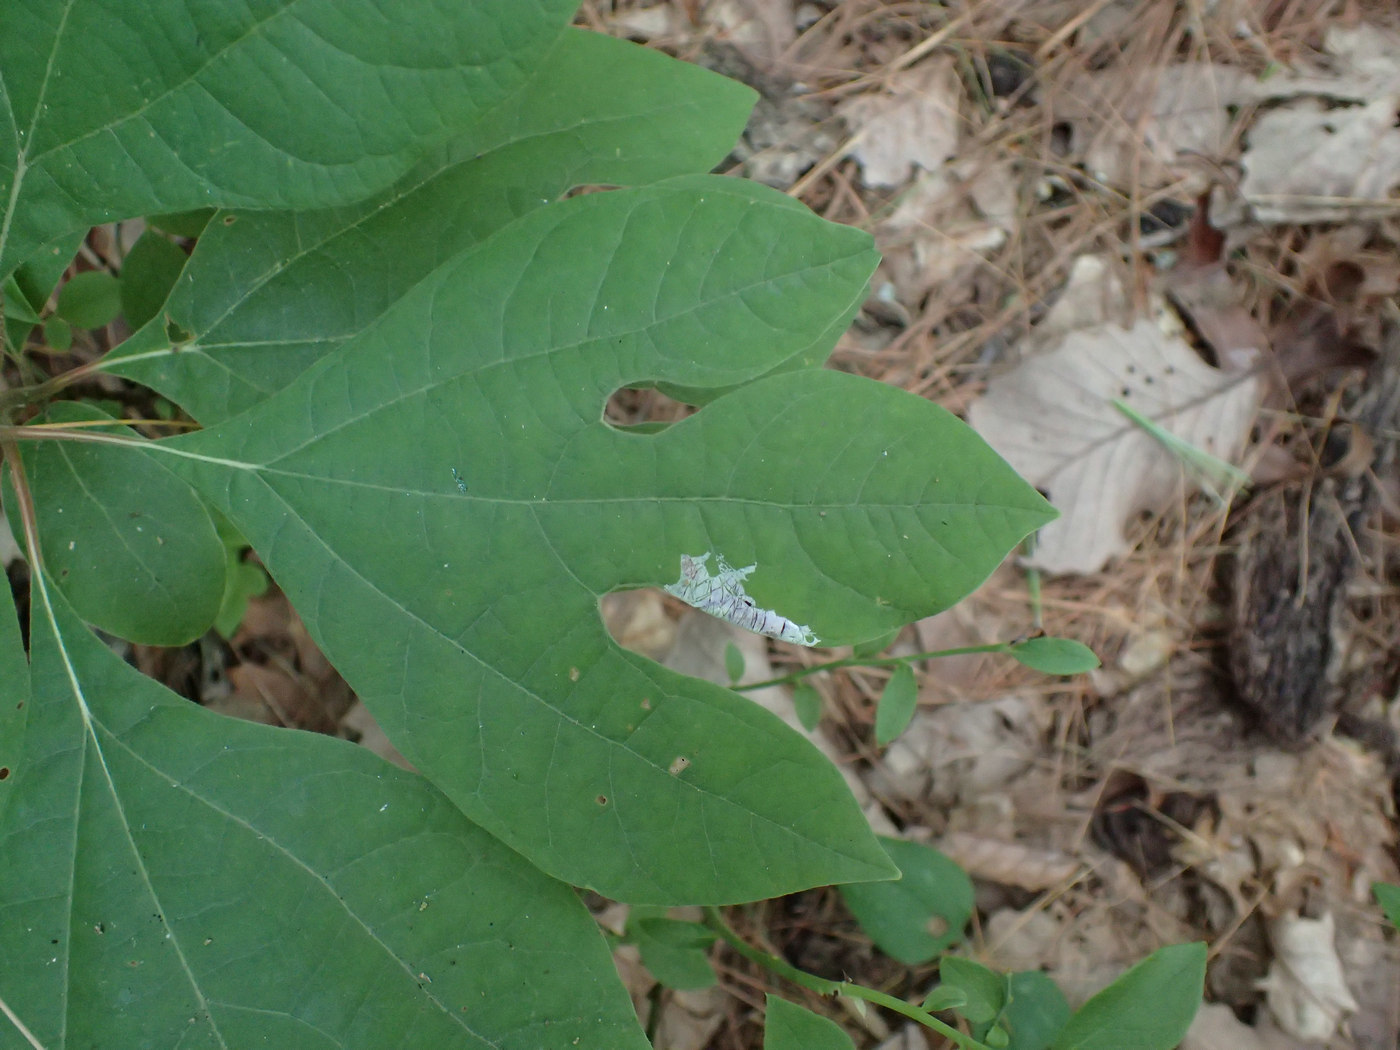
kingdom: Plantae
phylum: Tracheophyta
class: Magnoliopsida
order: Laurales
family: Lauraceae
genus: Sassafras
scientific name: Sassafras albidum
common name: Sassafras
